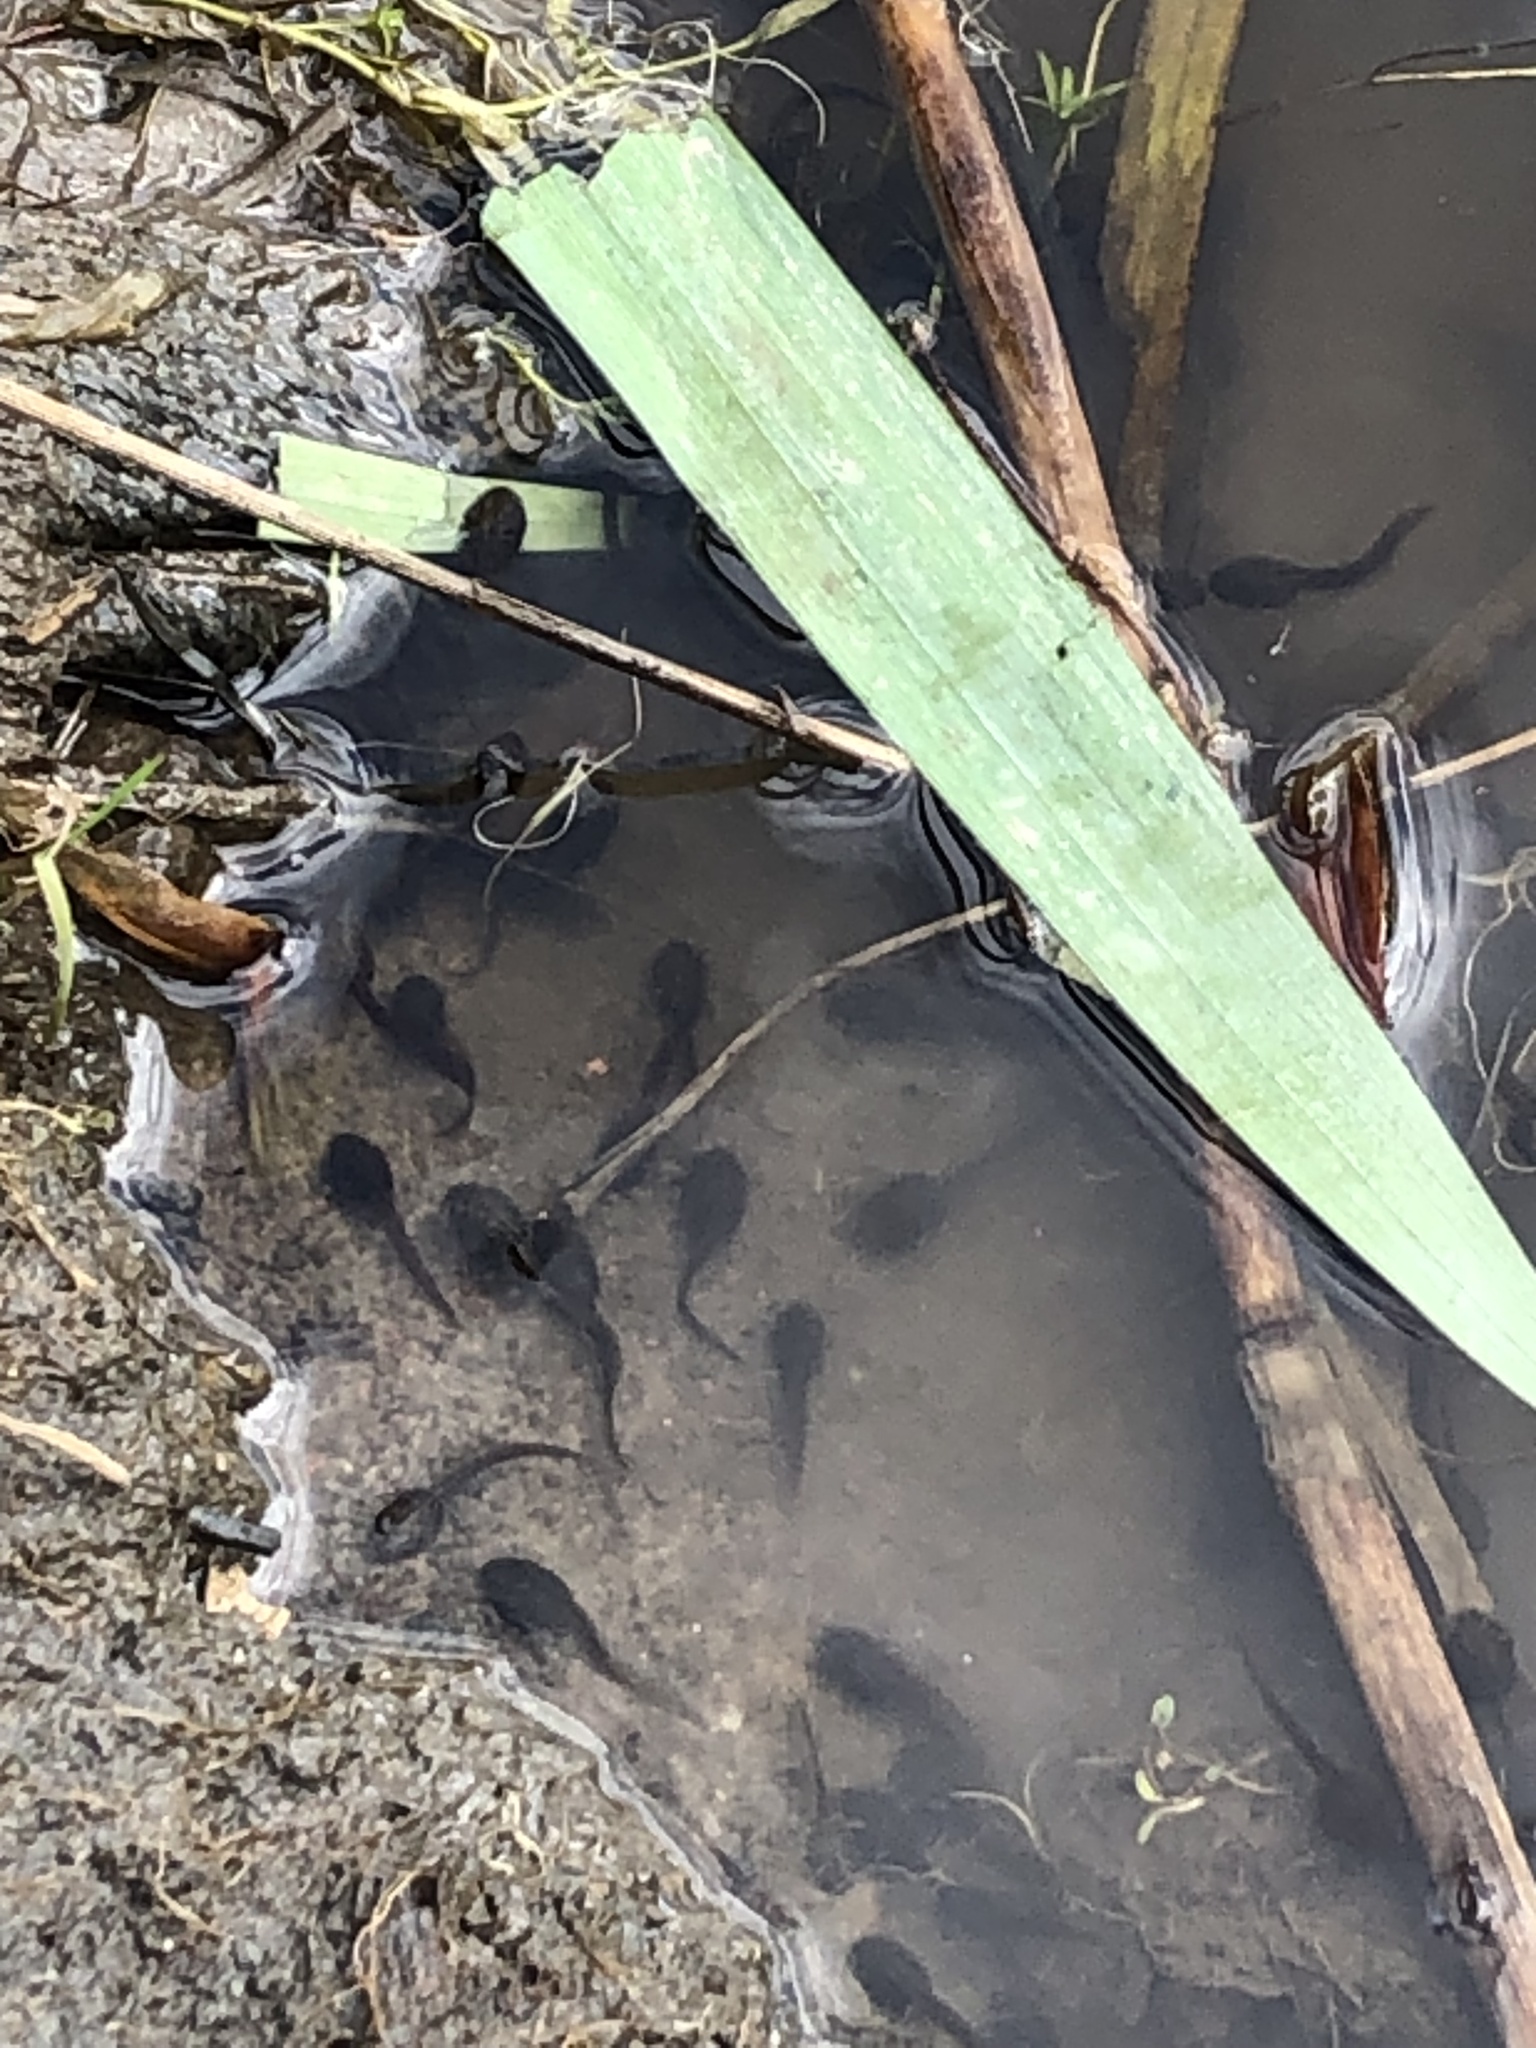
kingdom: Animalia
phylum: Chordata
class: Amphibia
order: Anura
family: Bufonidae
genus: Bufo
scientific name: Bufo bufo
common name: Common toad
